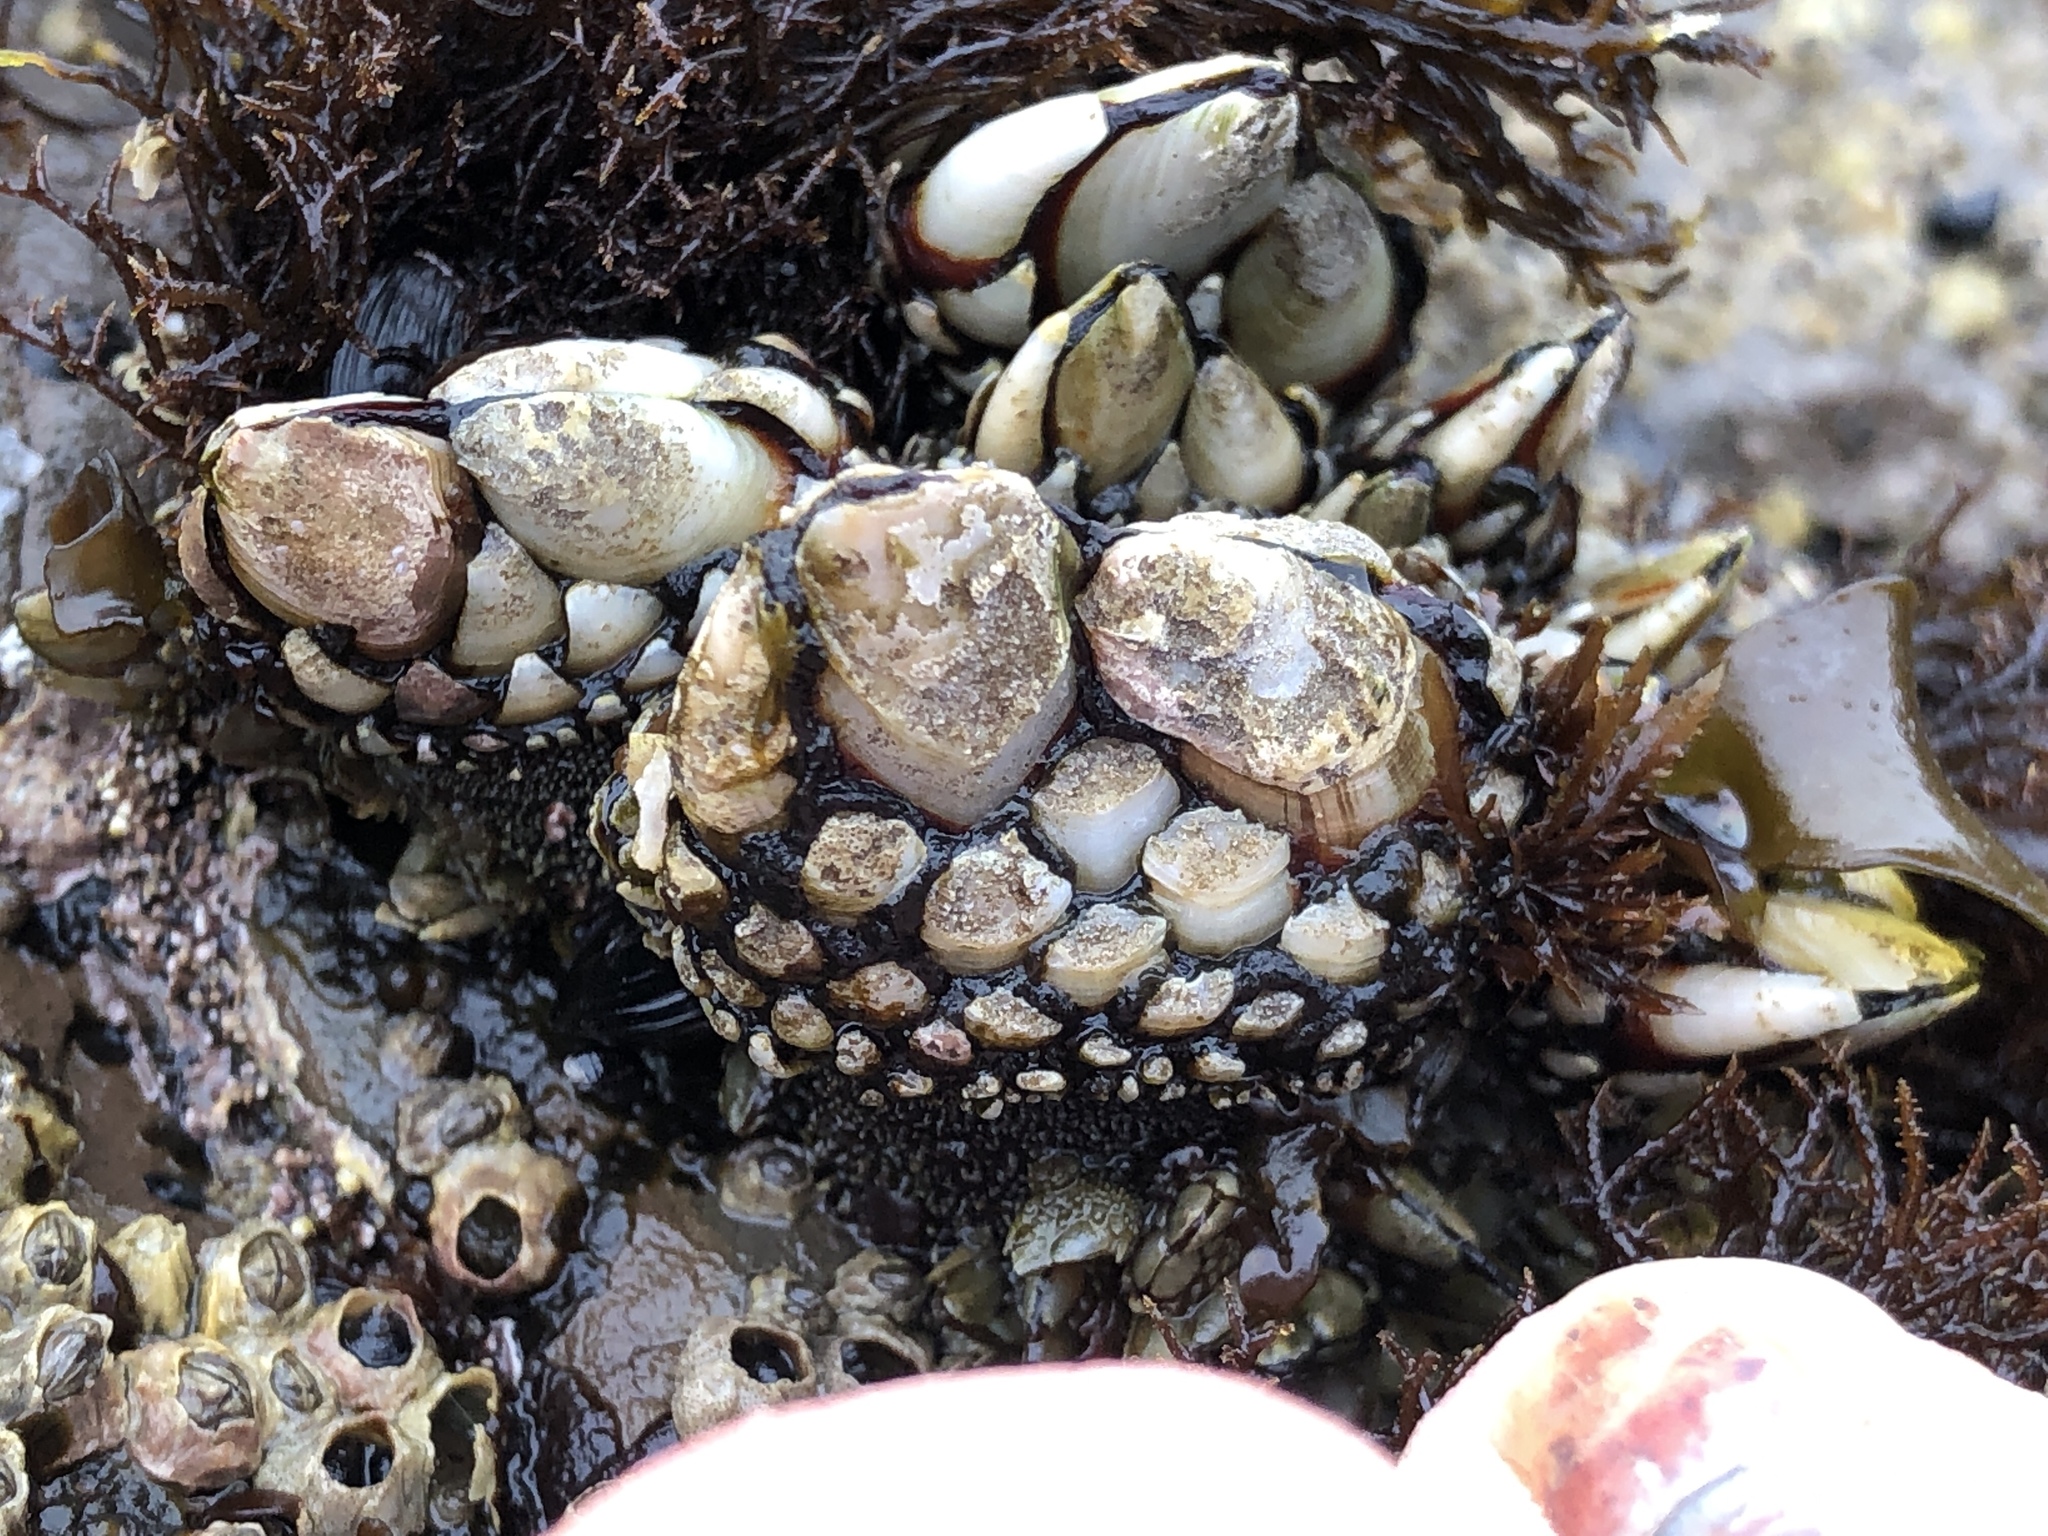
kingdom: Animalia
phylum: Arthropoda
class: Maxillopoda
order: Pedunculata
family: Pollicipedidae
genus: Pollicipes
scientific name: Pollicipes polymerus
